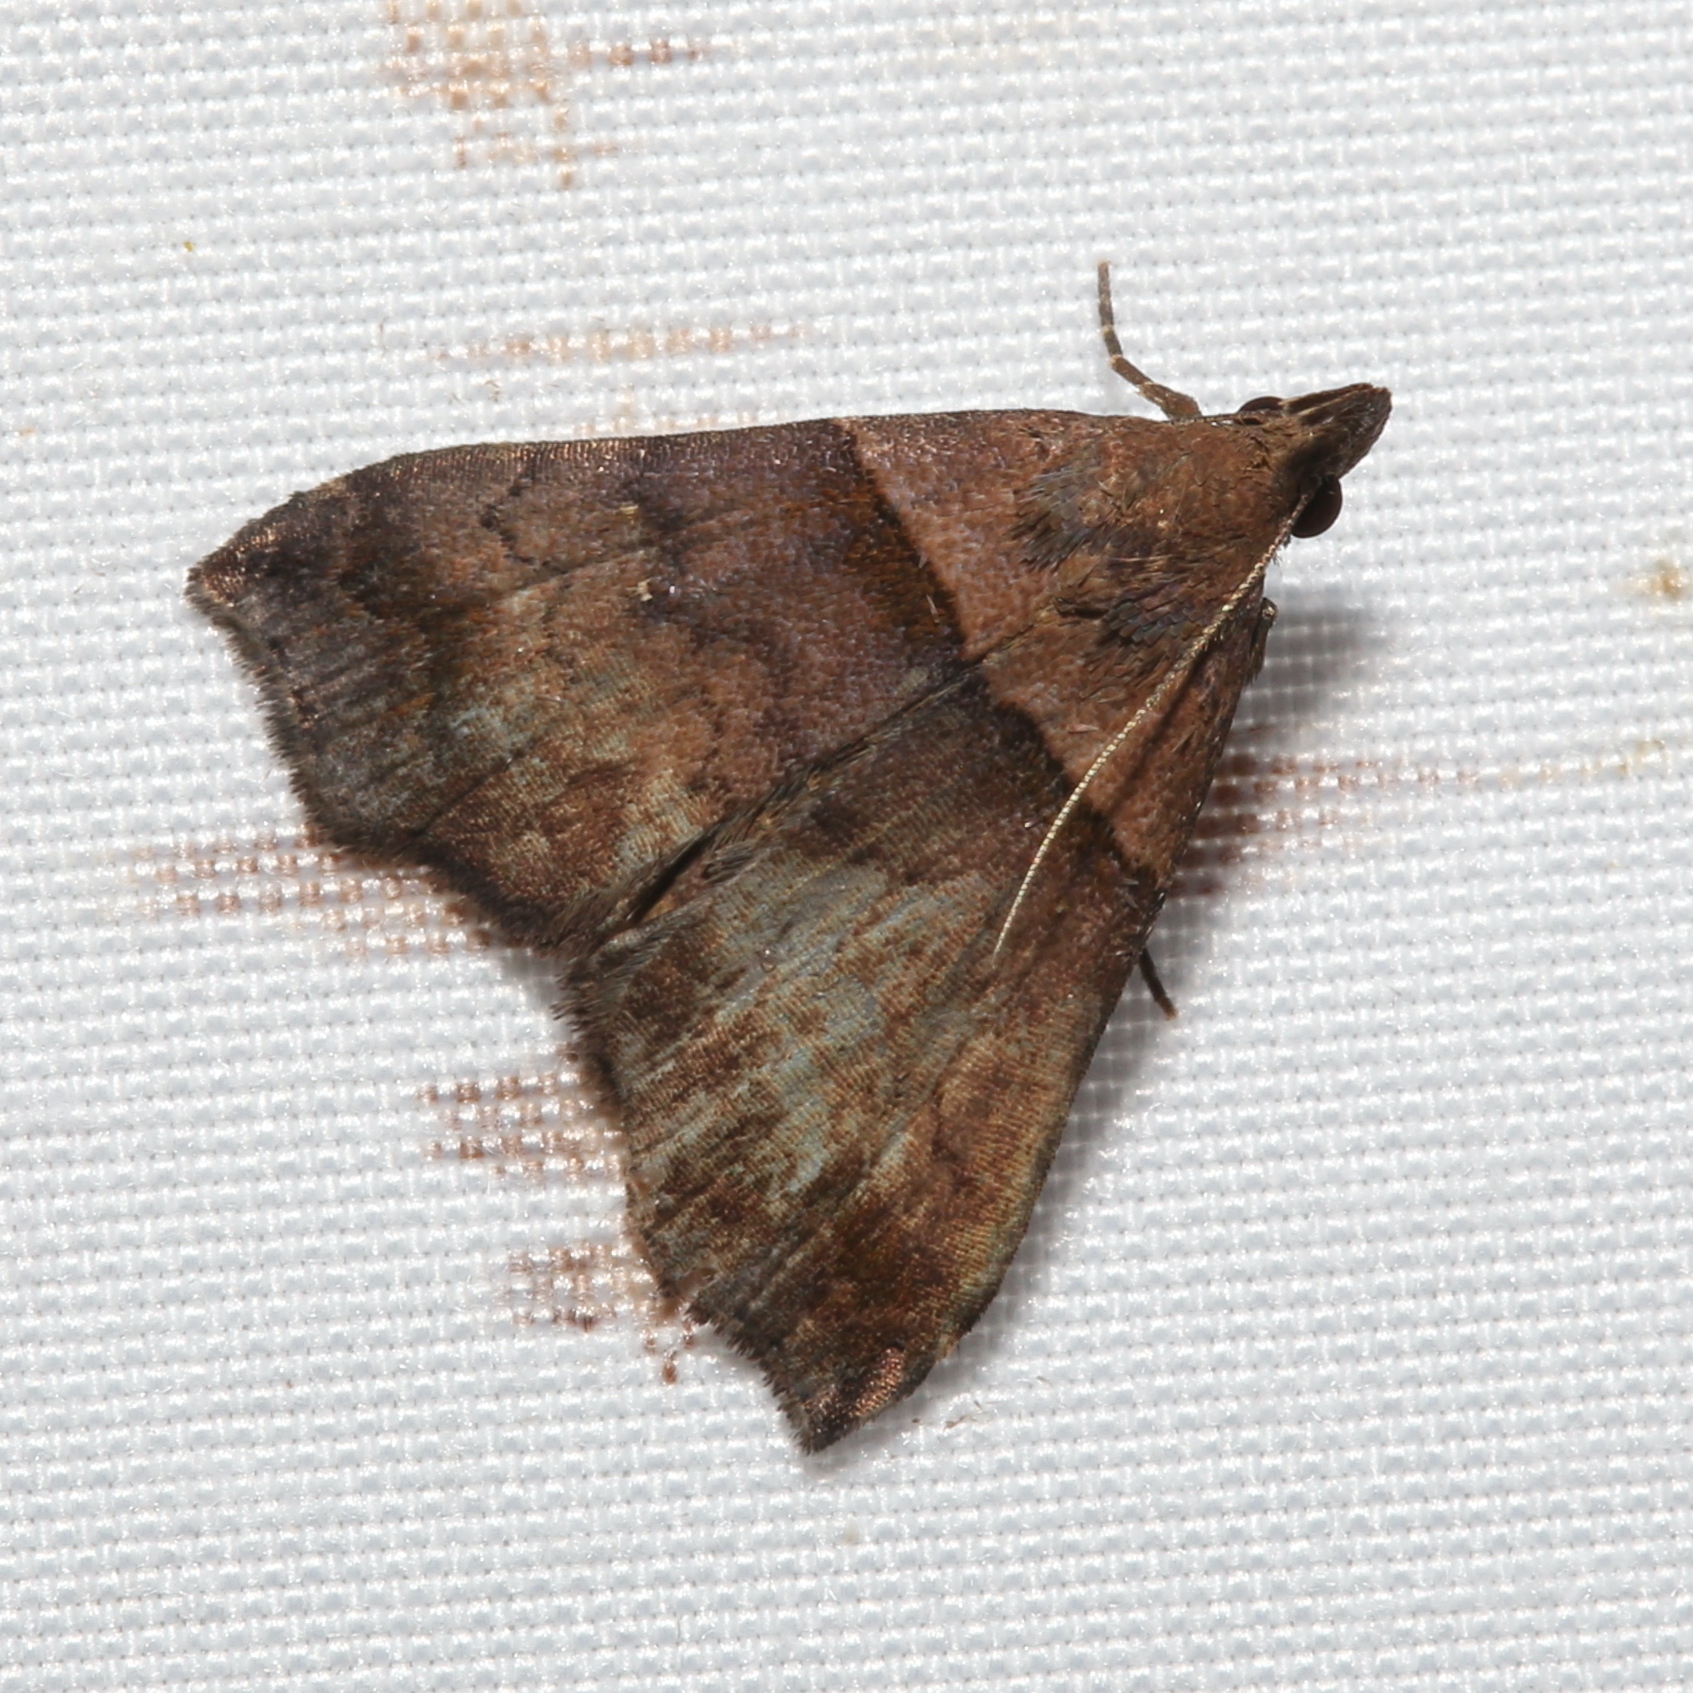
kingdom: Animalia
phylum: Arthropoda
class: Insecta
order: Lepidoptera
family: Erebidae
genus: Lascoria
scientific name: Lascoria ambigualis
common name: Ambiguous moth
